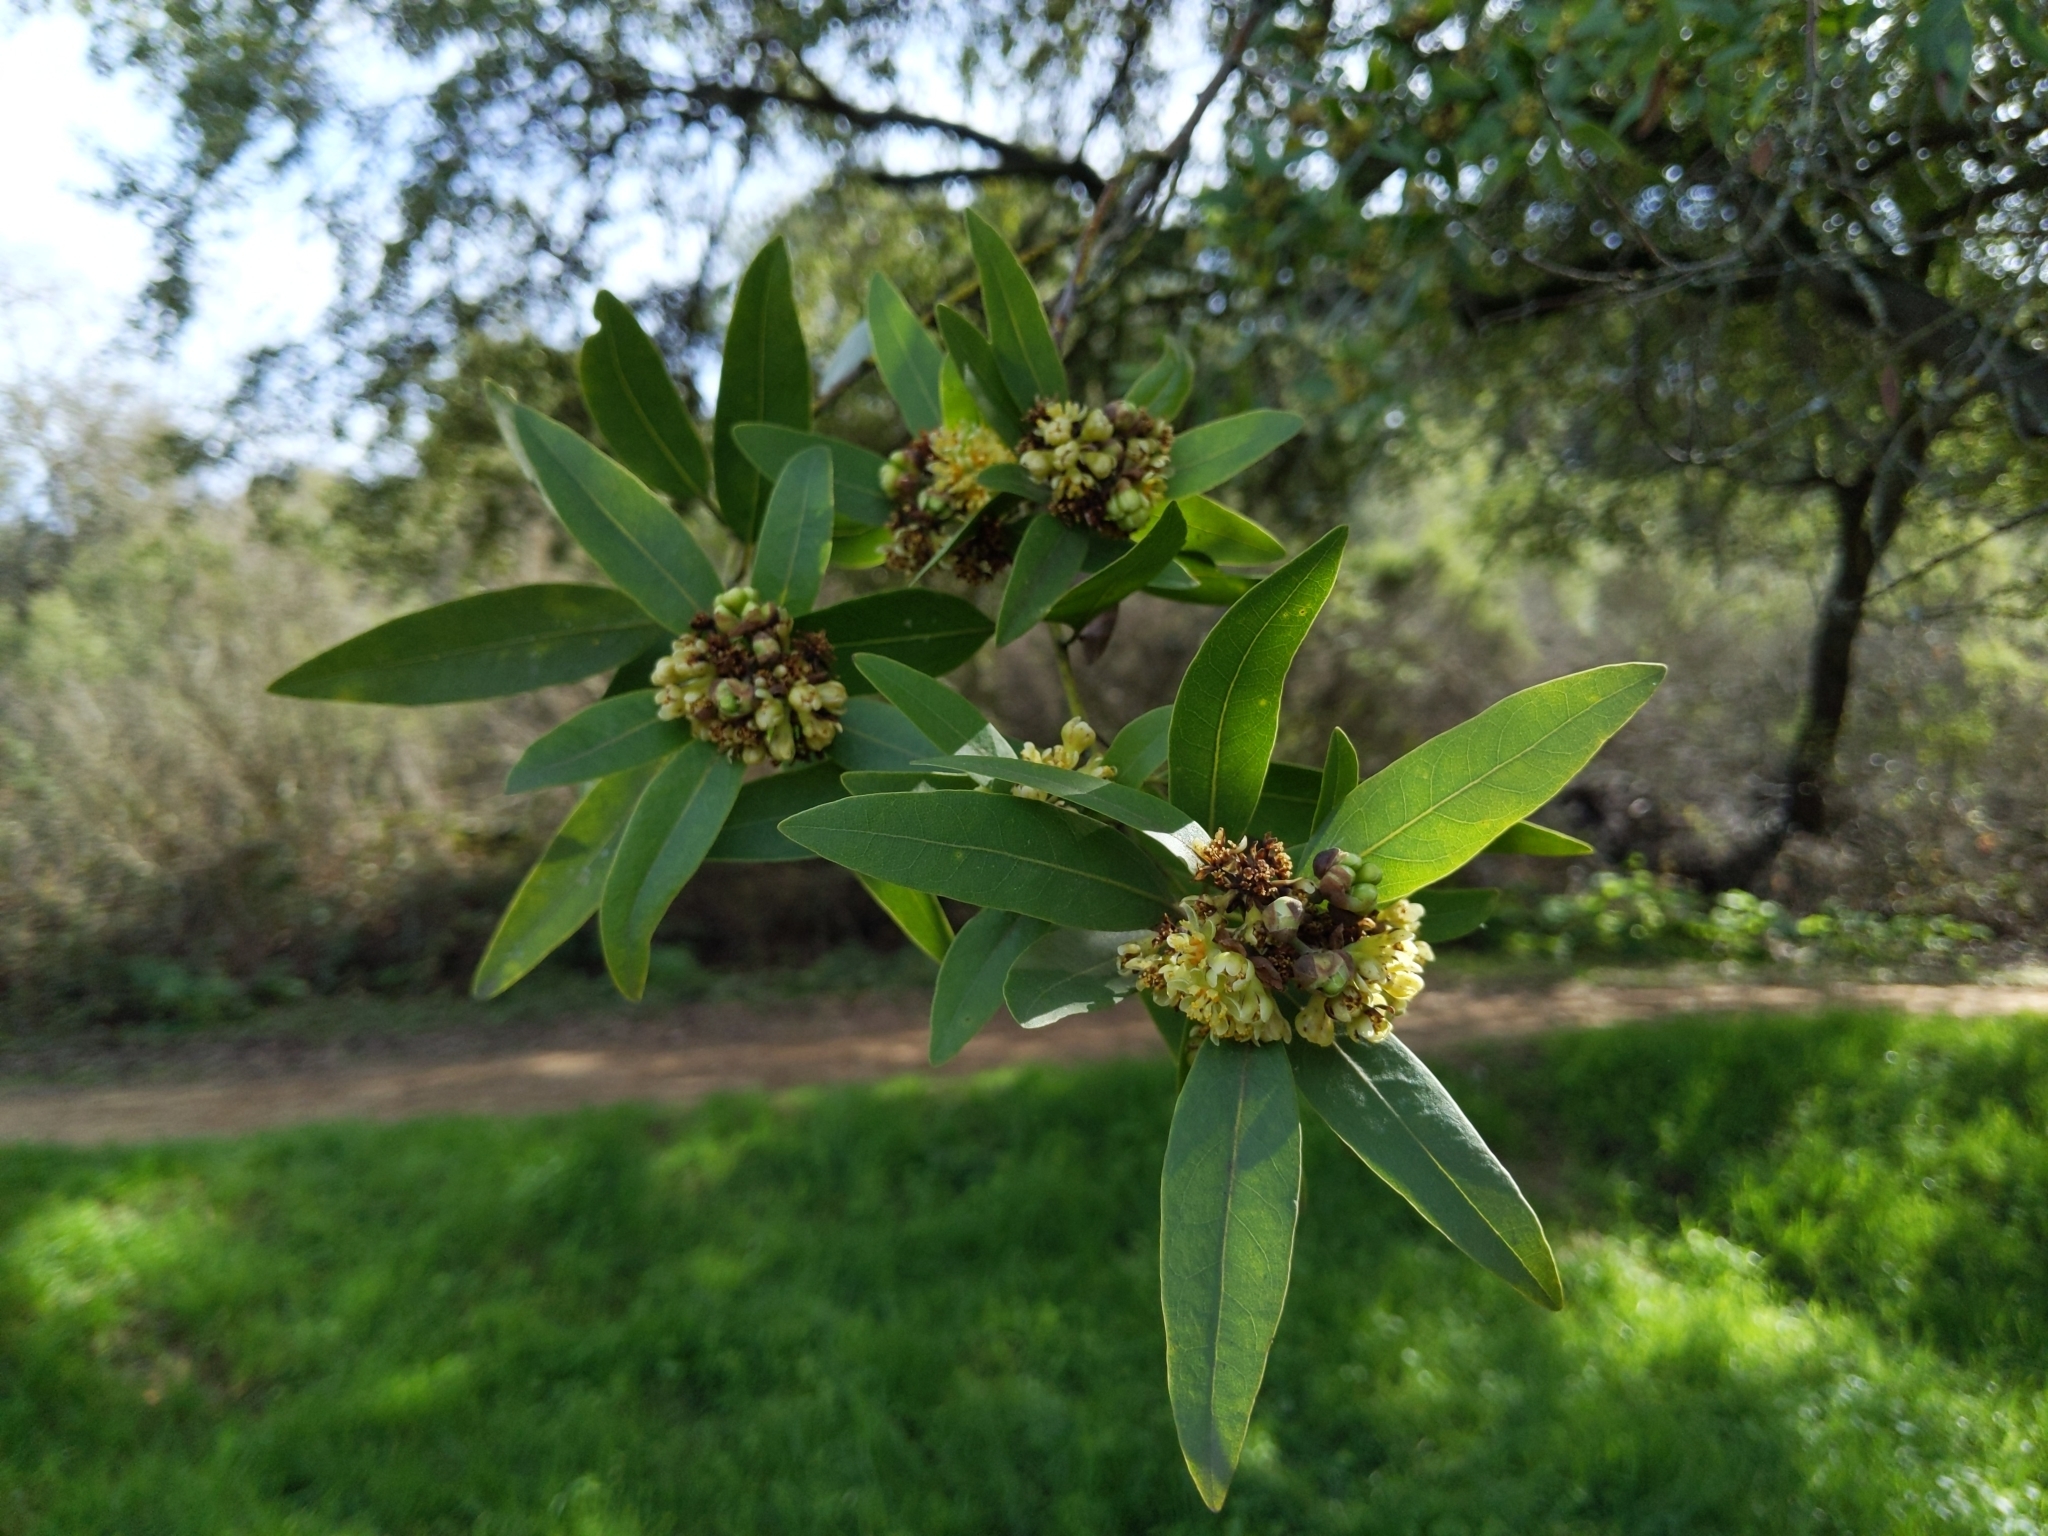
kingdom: Plantae
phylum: Tracheophyta
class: Magnoliopsida
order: Laurales
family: Lauraceae
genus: Umbellularia
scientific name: Umbellularia californica
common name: California bay
